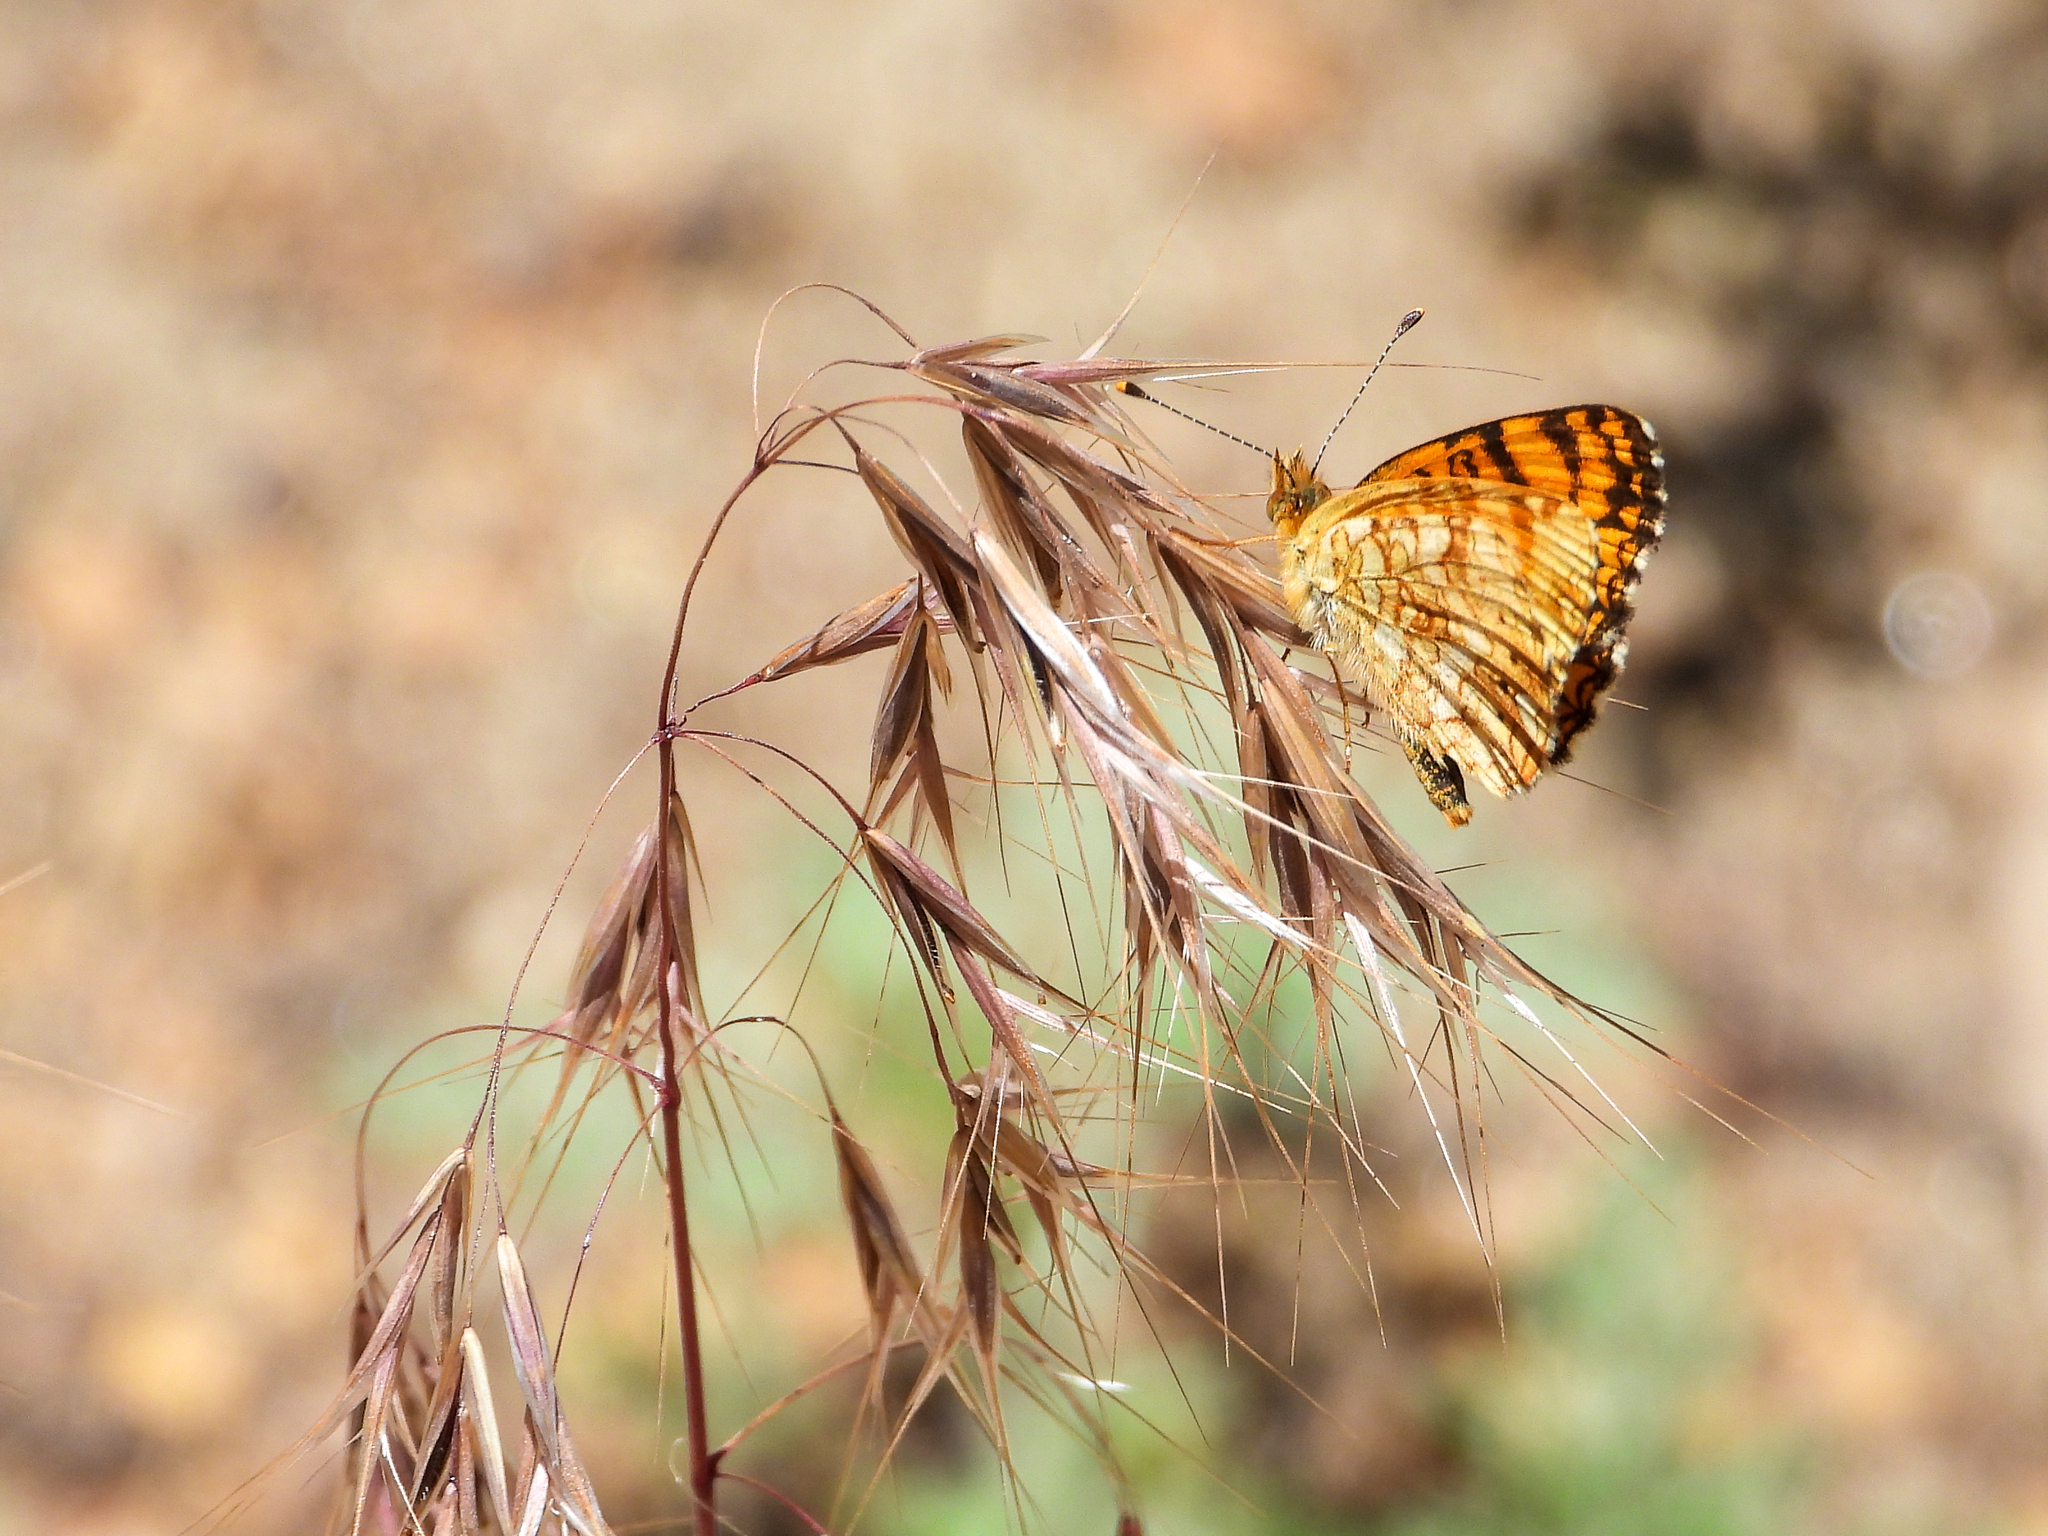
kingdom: Animalia
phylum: Arthropoda
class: Insecta
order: Lepidoptera
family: Nymphalidae
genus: Eresia
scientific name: Eresia aveyrona
